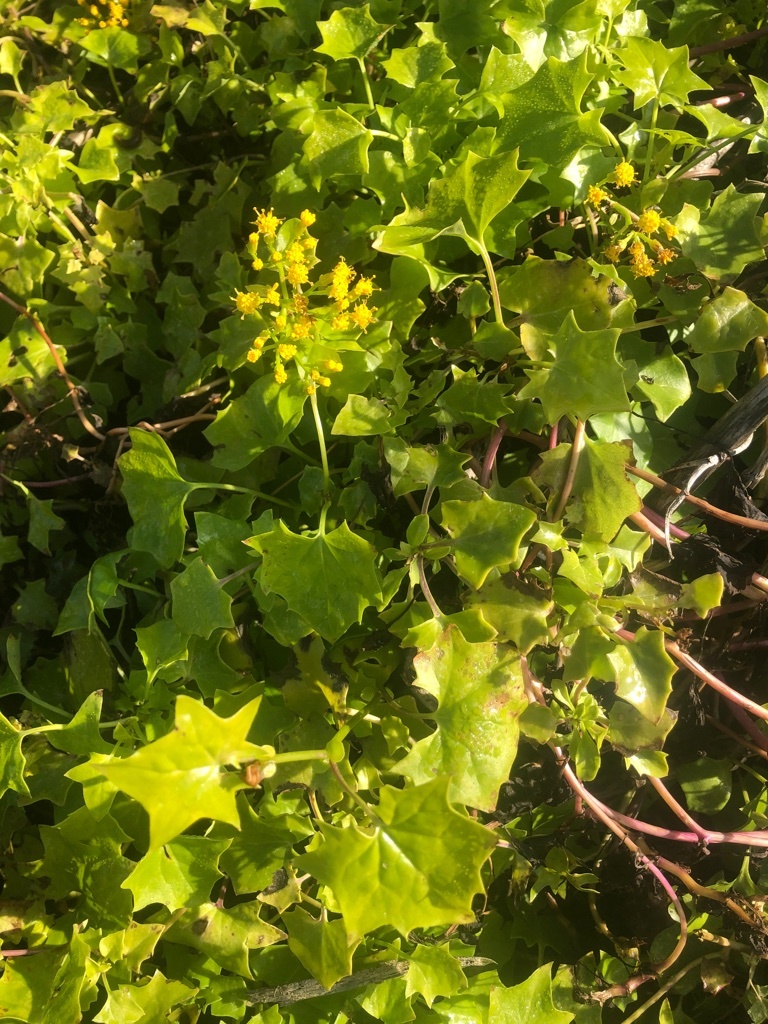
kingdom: Plantae
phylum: Tracheophyta
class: Magnoliopsida
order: Asterales
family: Asteraceae
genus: Delairea
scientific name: Delairea odorata
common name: Cape-ivy
